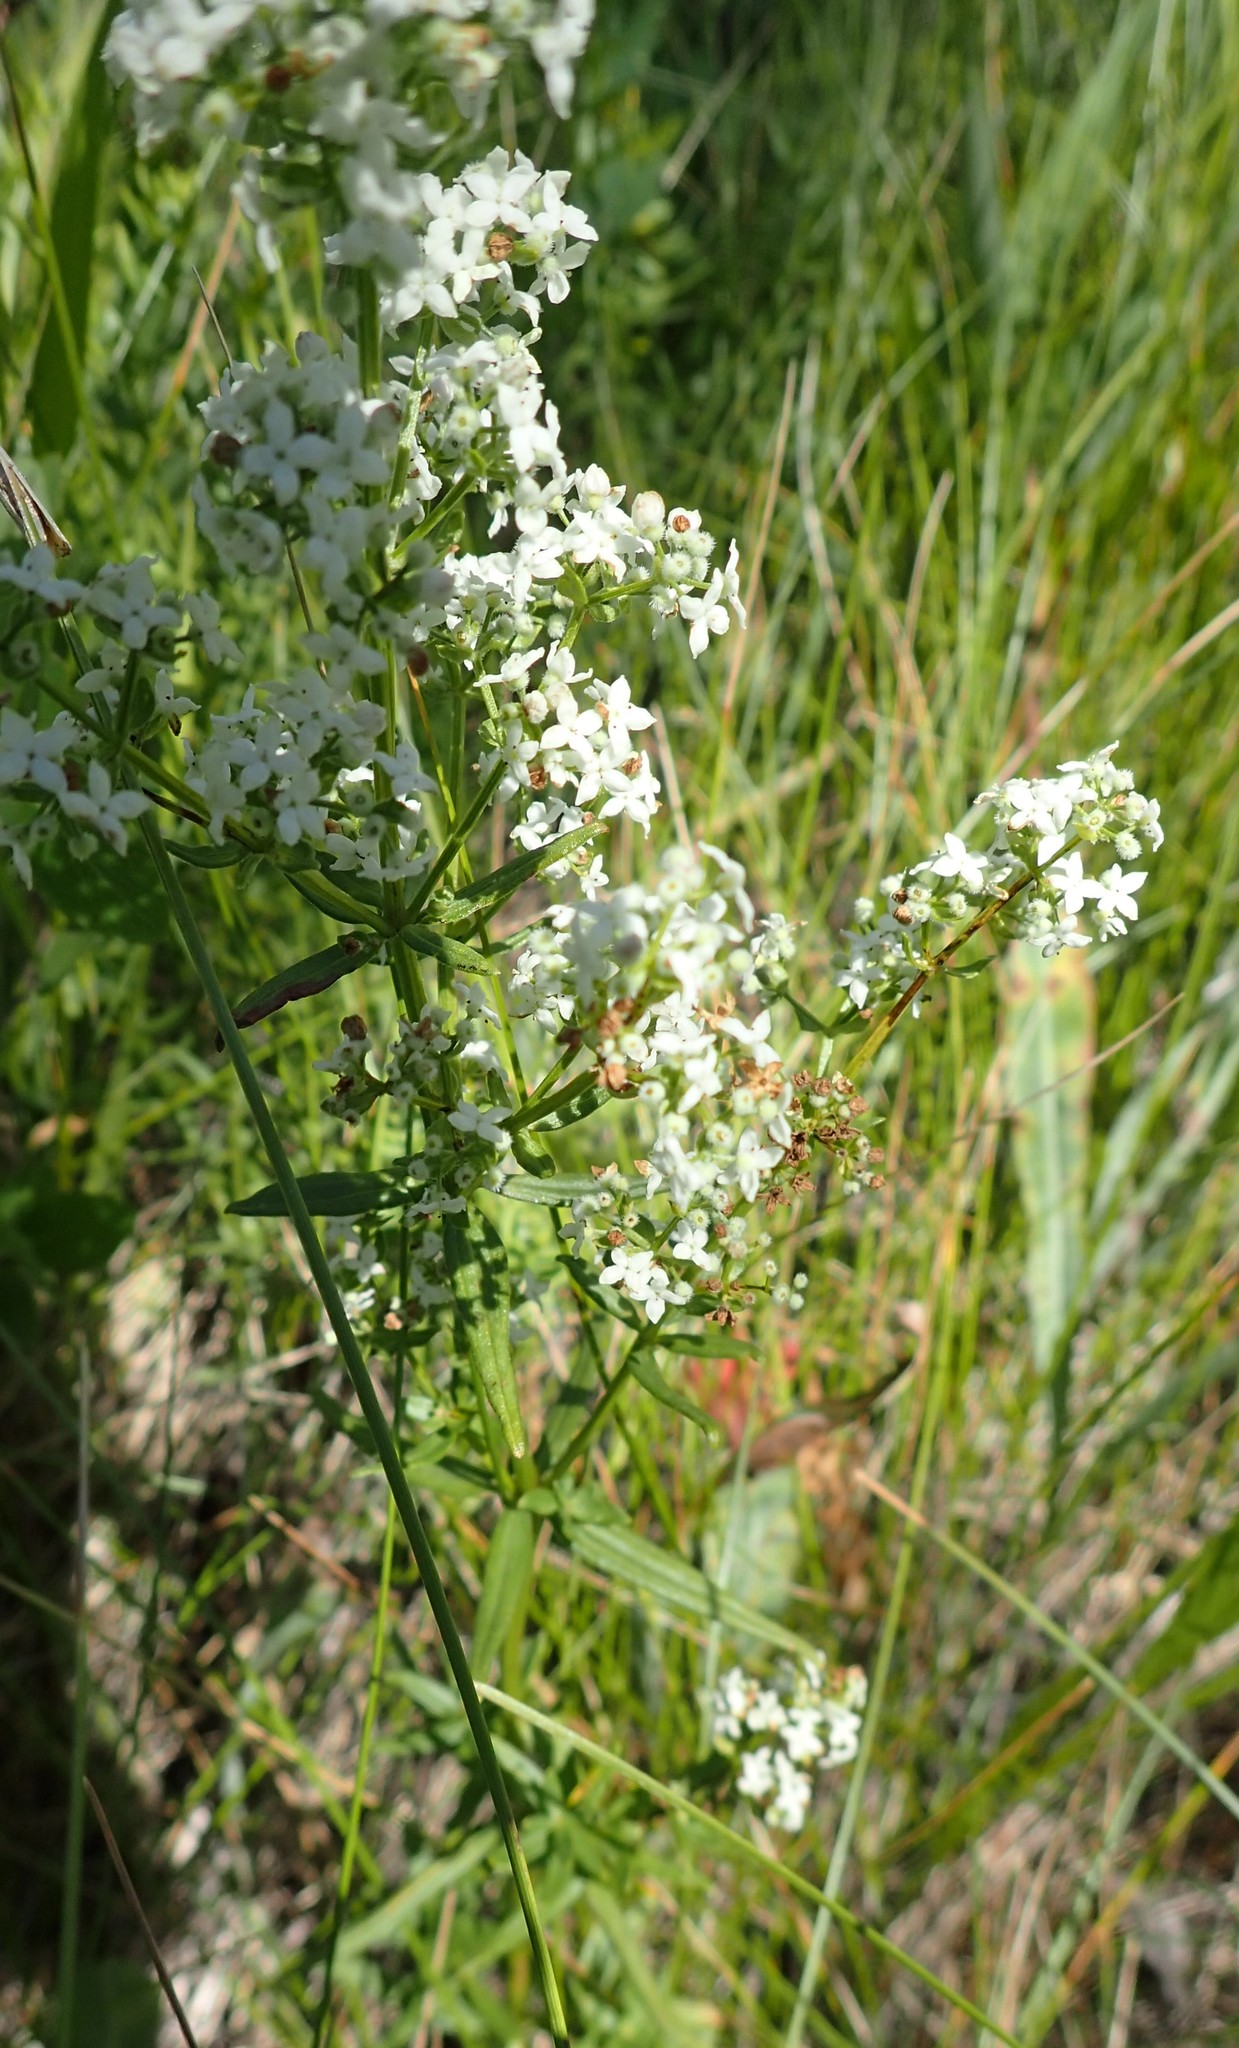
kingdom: Plantae
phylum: Tracheophyta
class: Magnoliopsida
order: Gentianales
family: Rubiaceae
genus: Galium
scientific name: Galium boreale
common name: Northern bedstraw
